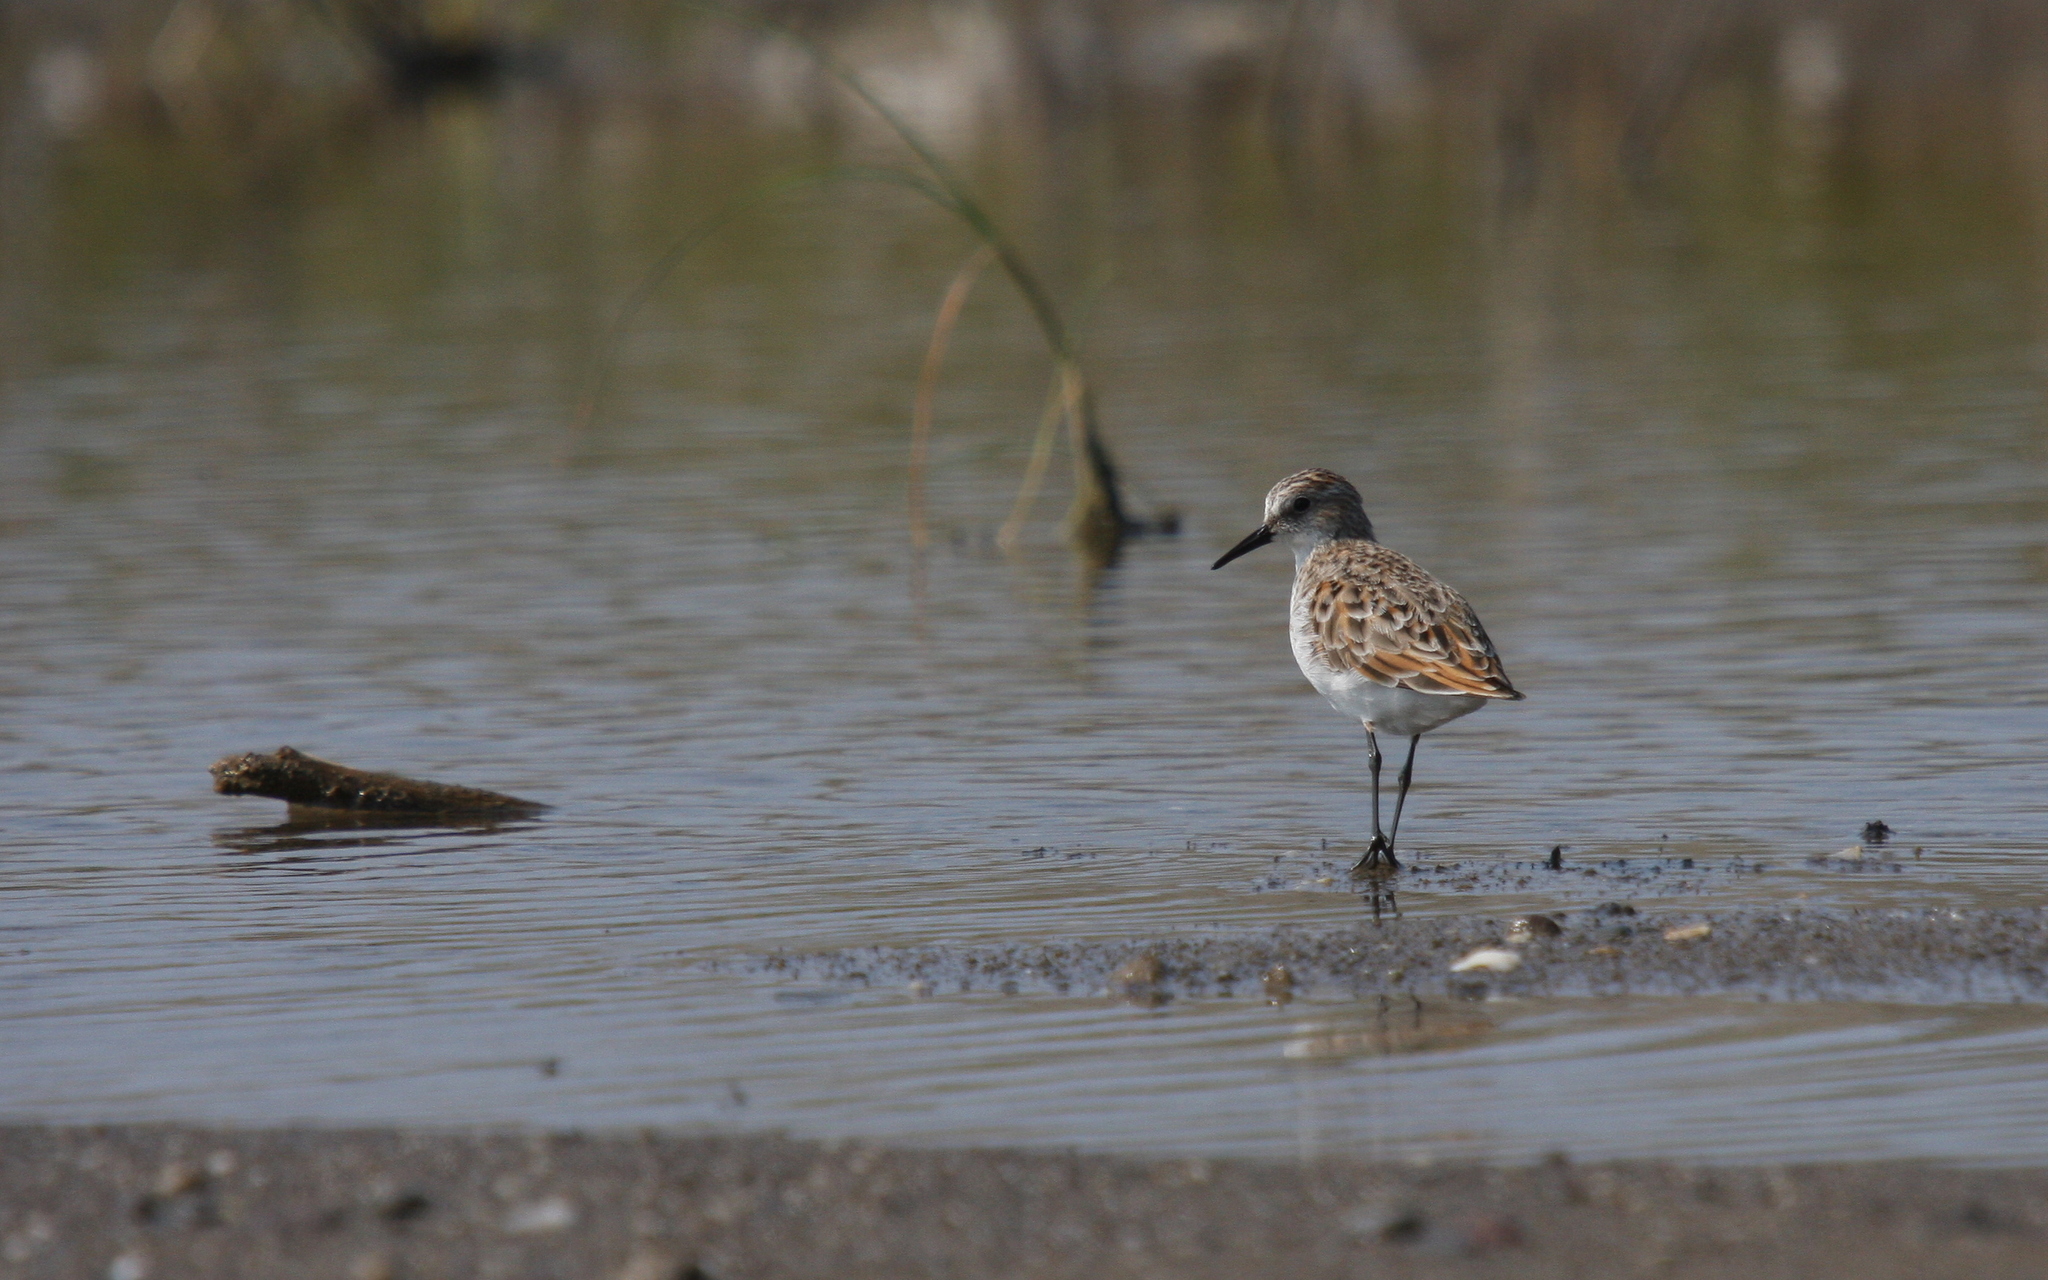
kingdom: Animalia
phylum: Chordata
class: Aves
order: Charadriiformes
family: Scolopacidae
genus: Calidris
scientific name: Calidris minuta
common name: Little stint
